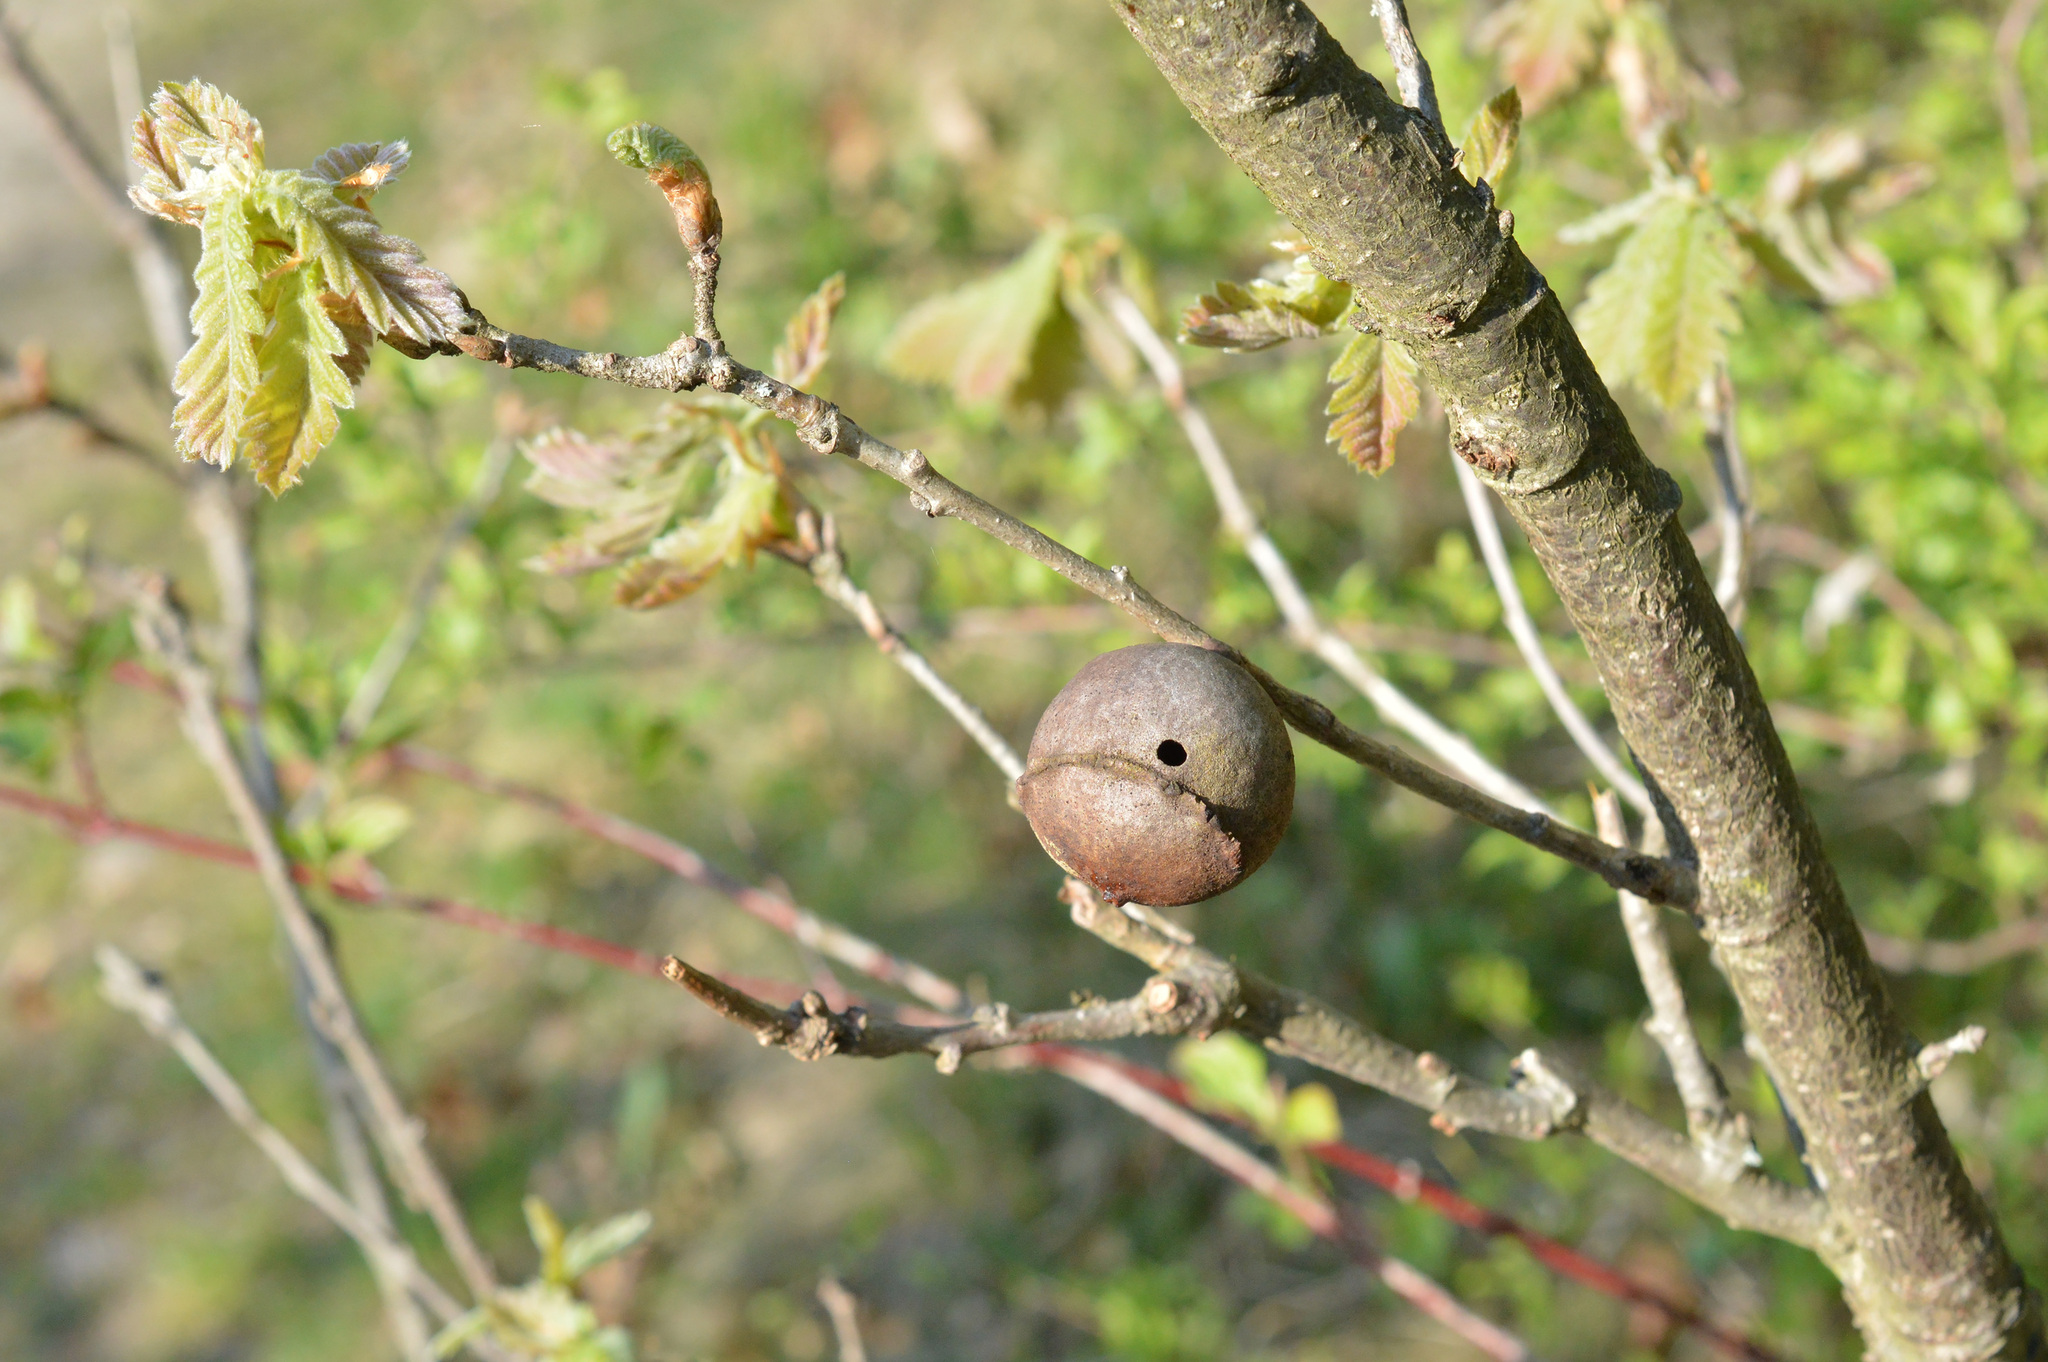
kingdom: Animalia
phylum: Arthropoda
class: Insecta
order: Hymenoptera
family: Cynipidae
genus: Andricus
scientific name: Andricus quercustozae
